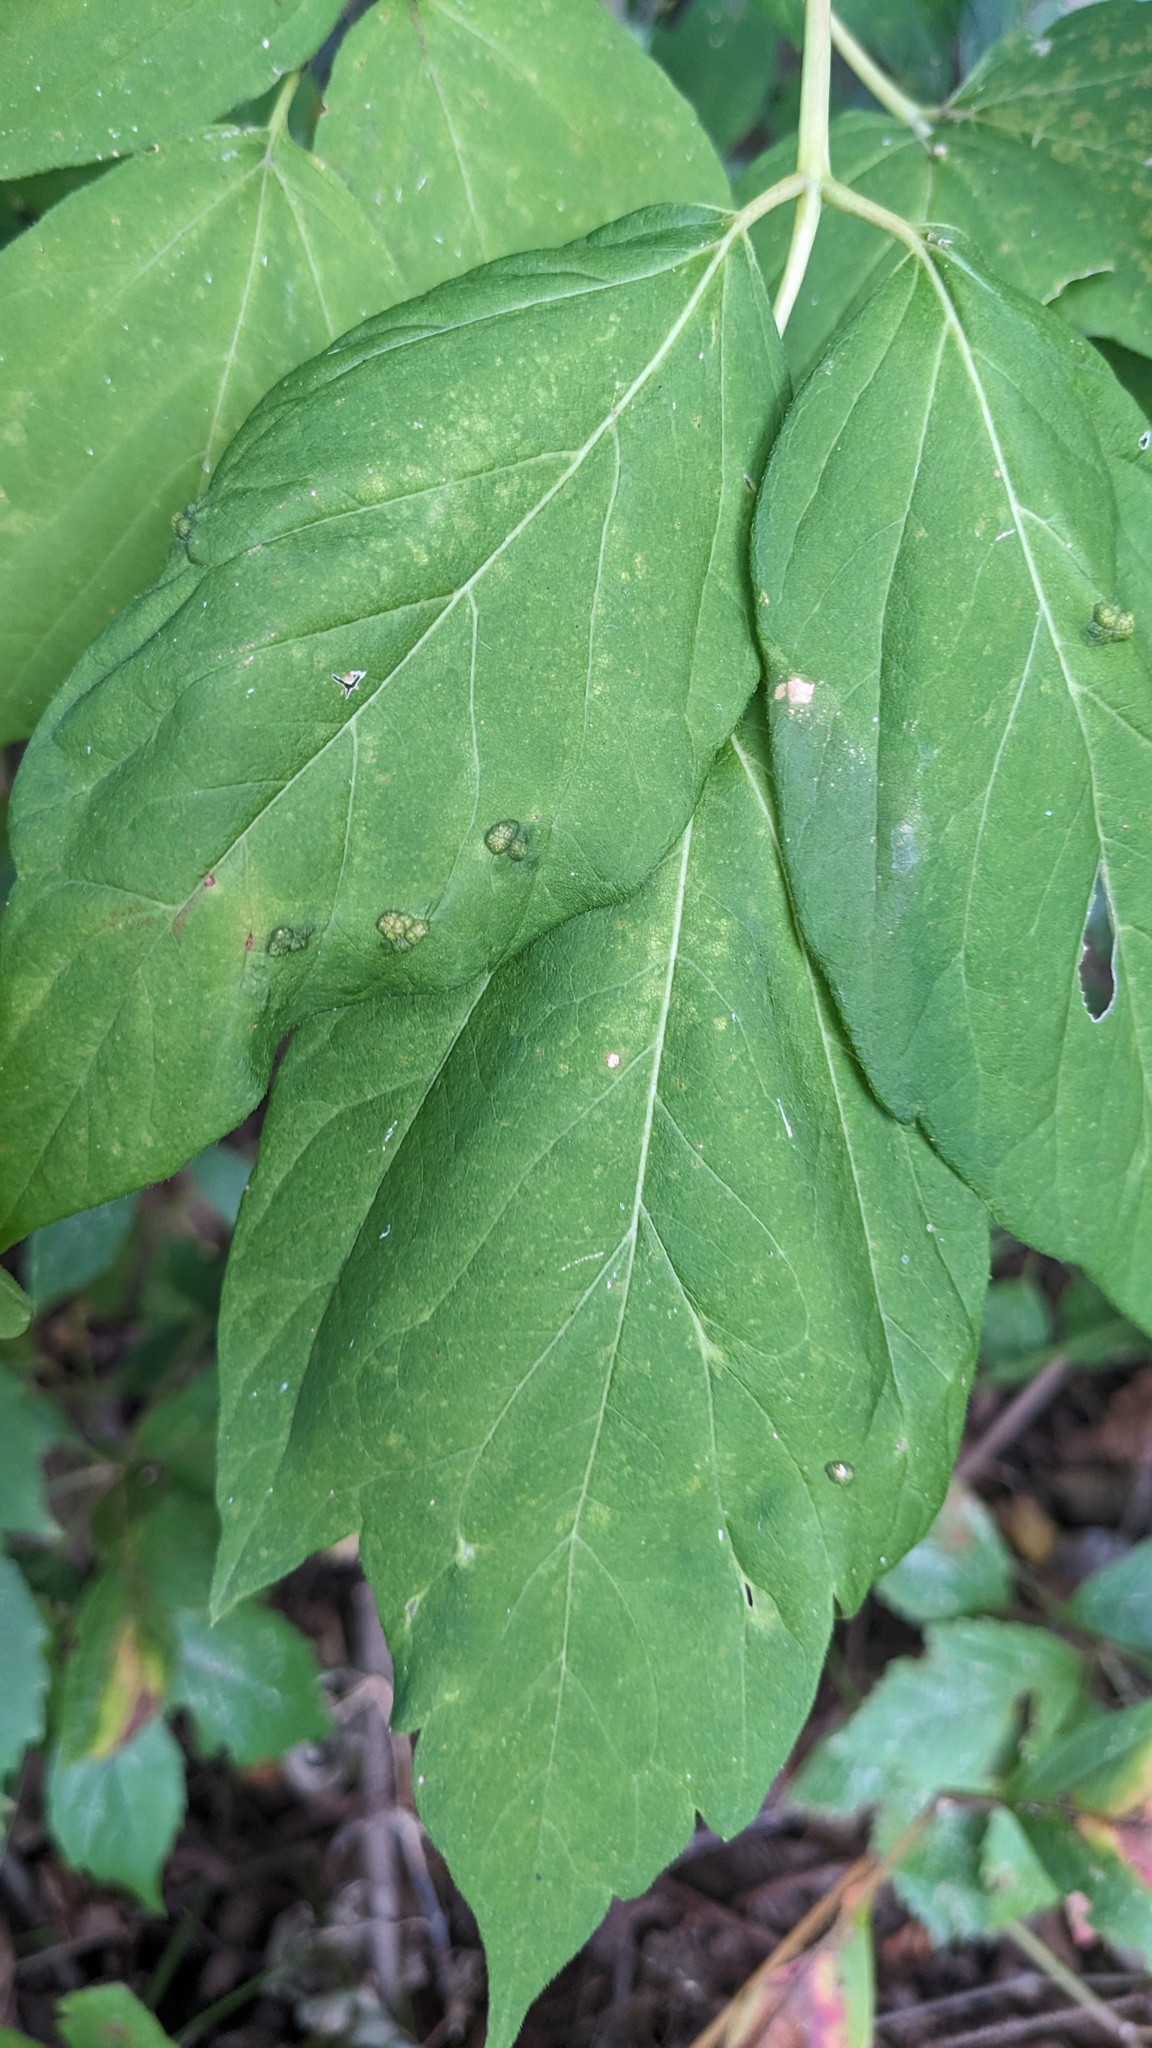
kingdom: Animalia
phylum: Arthropoda
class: Arachnida
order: Trombidiformes
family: Eriophyidae
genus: Aceria
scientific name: Aceria
